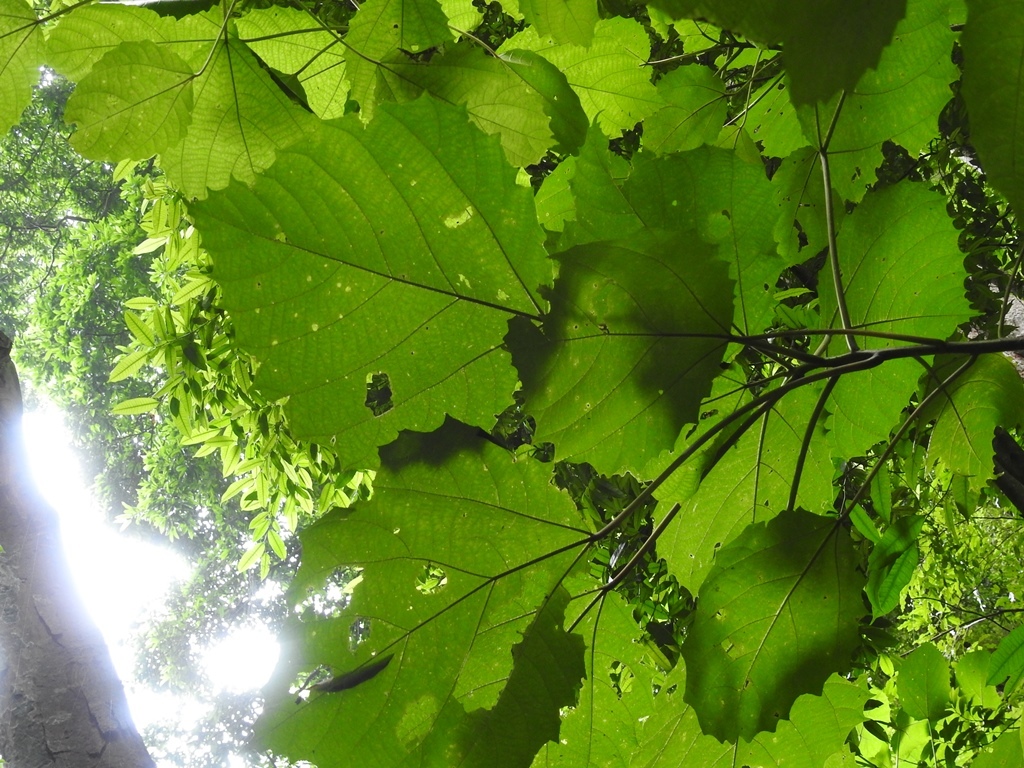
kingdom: Plantae
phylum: Tracheophyta
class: Magnoliopsida
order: Rosales
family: Urticaceae
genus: Urera
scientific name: Urera baccifera
